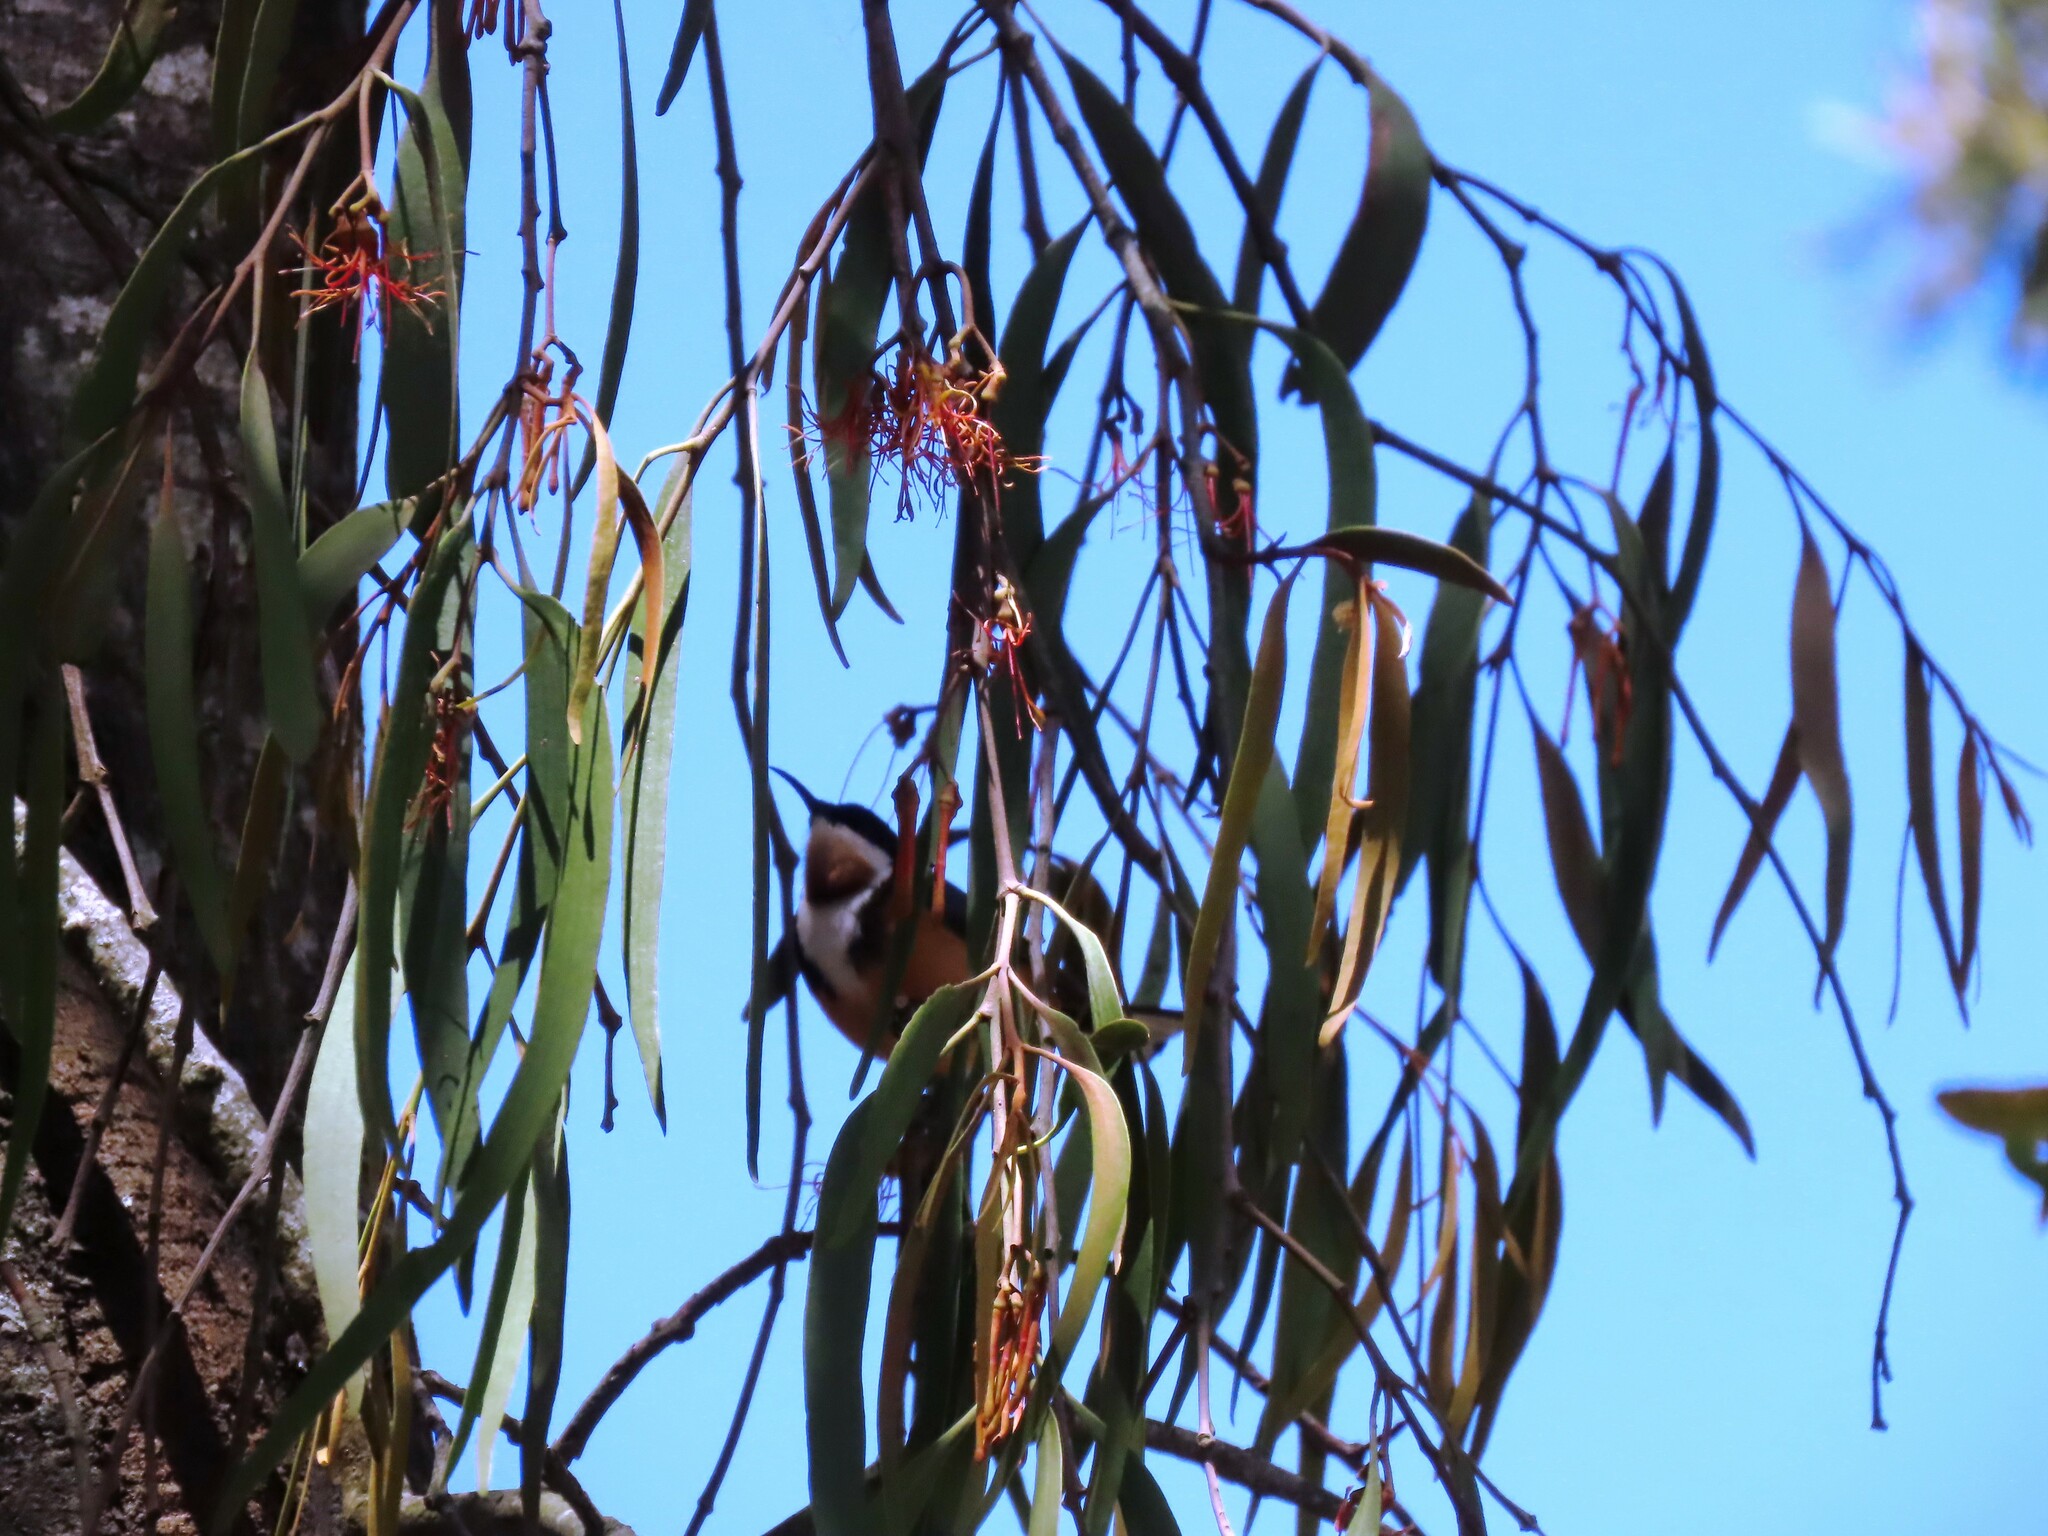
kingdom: Animalia
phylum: Chordata
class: Aves
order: Passeriformes
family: Meliphagidae
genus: Acanthorhynchus
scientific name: Acanthorhynchus tenuirostris
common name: Eastern spinebill
